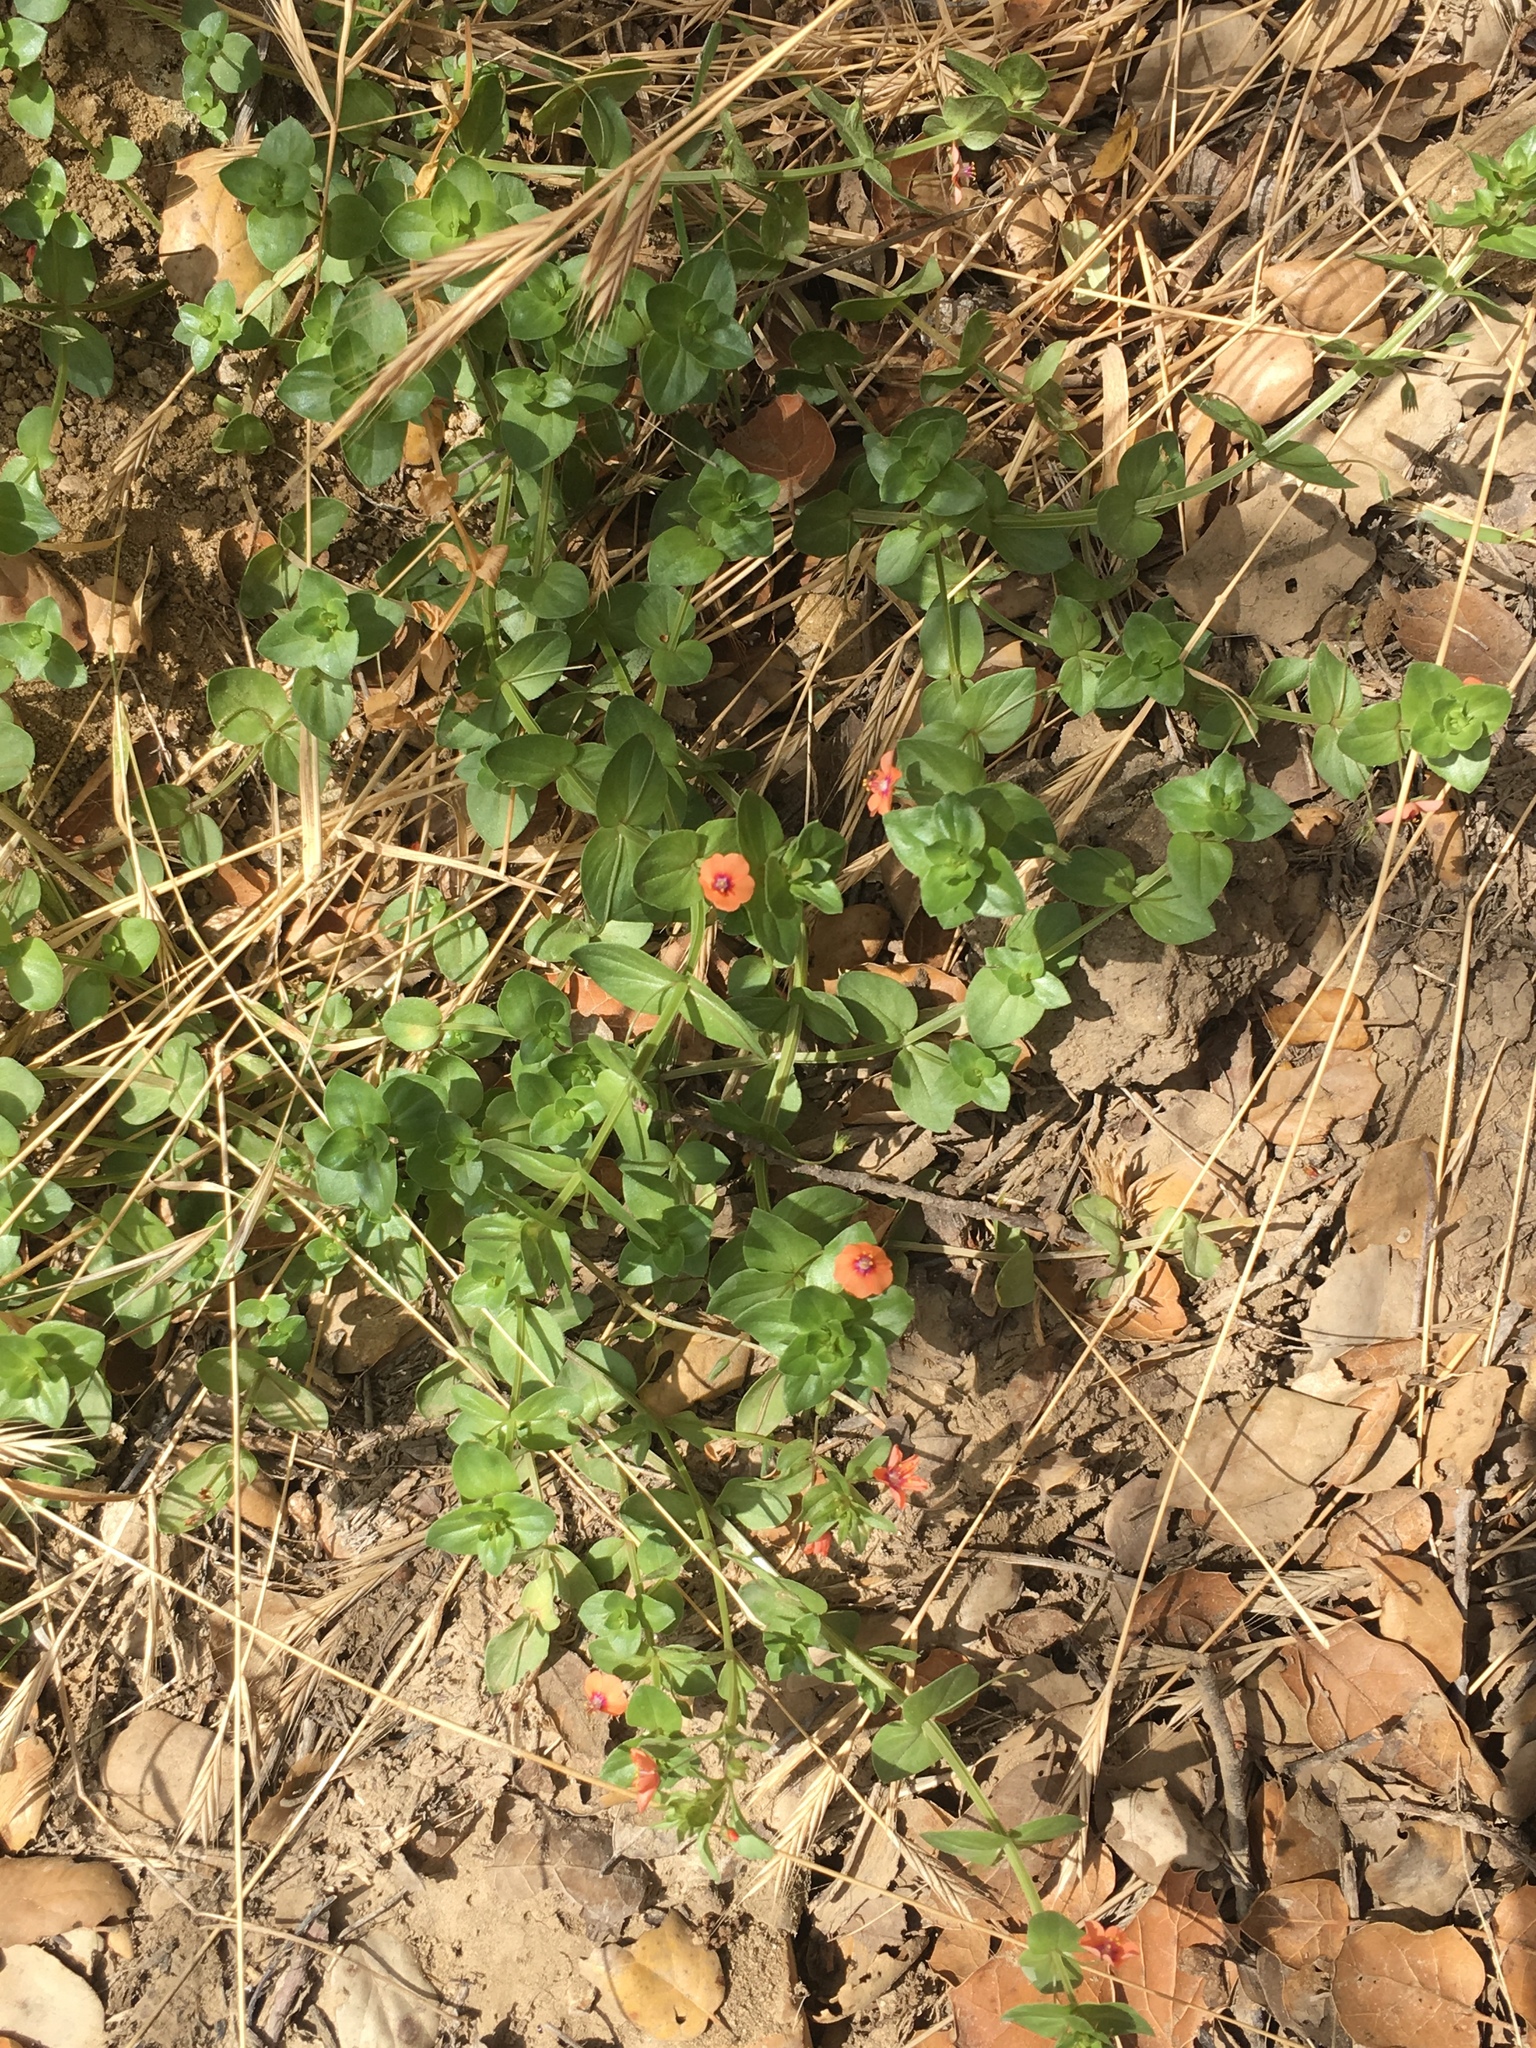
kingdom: Plantae
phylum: Tracheophyta
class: Magnoliopsida
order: Ericales
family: Primulaceae
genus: Lysimachia
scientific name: Lysimachia arvensis
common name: Scarlet pimpernel
